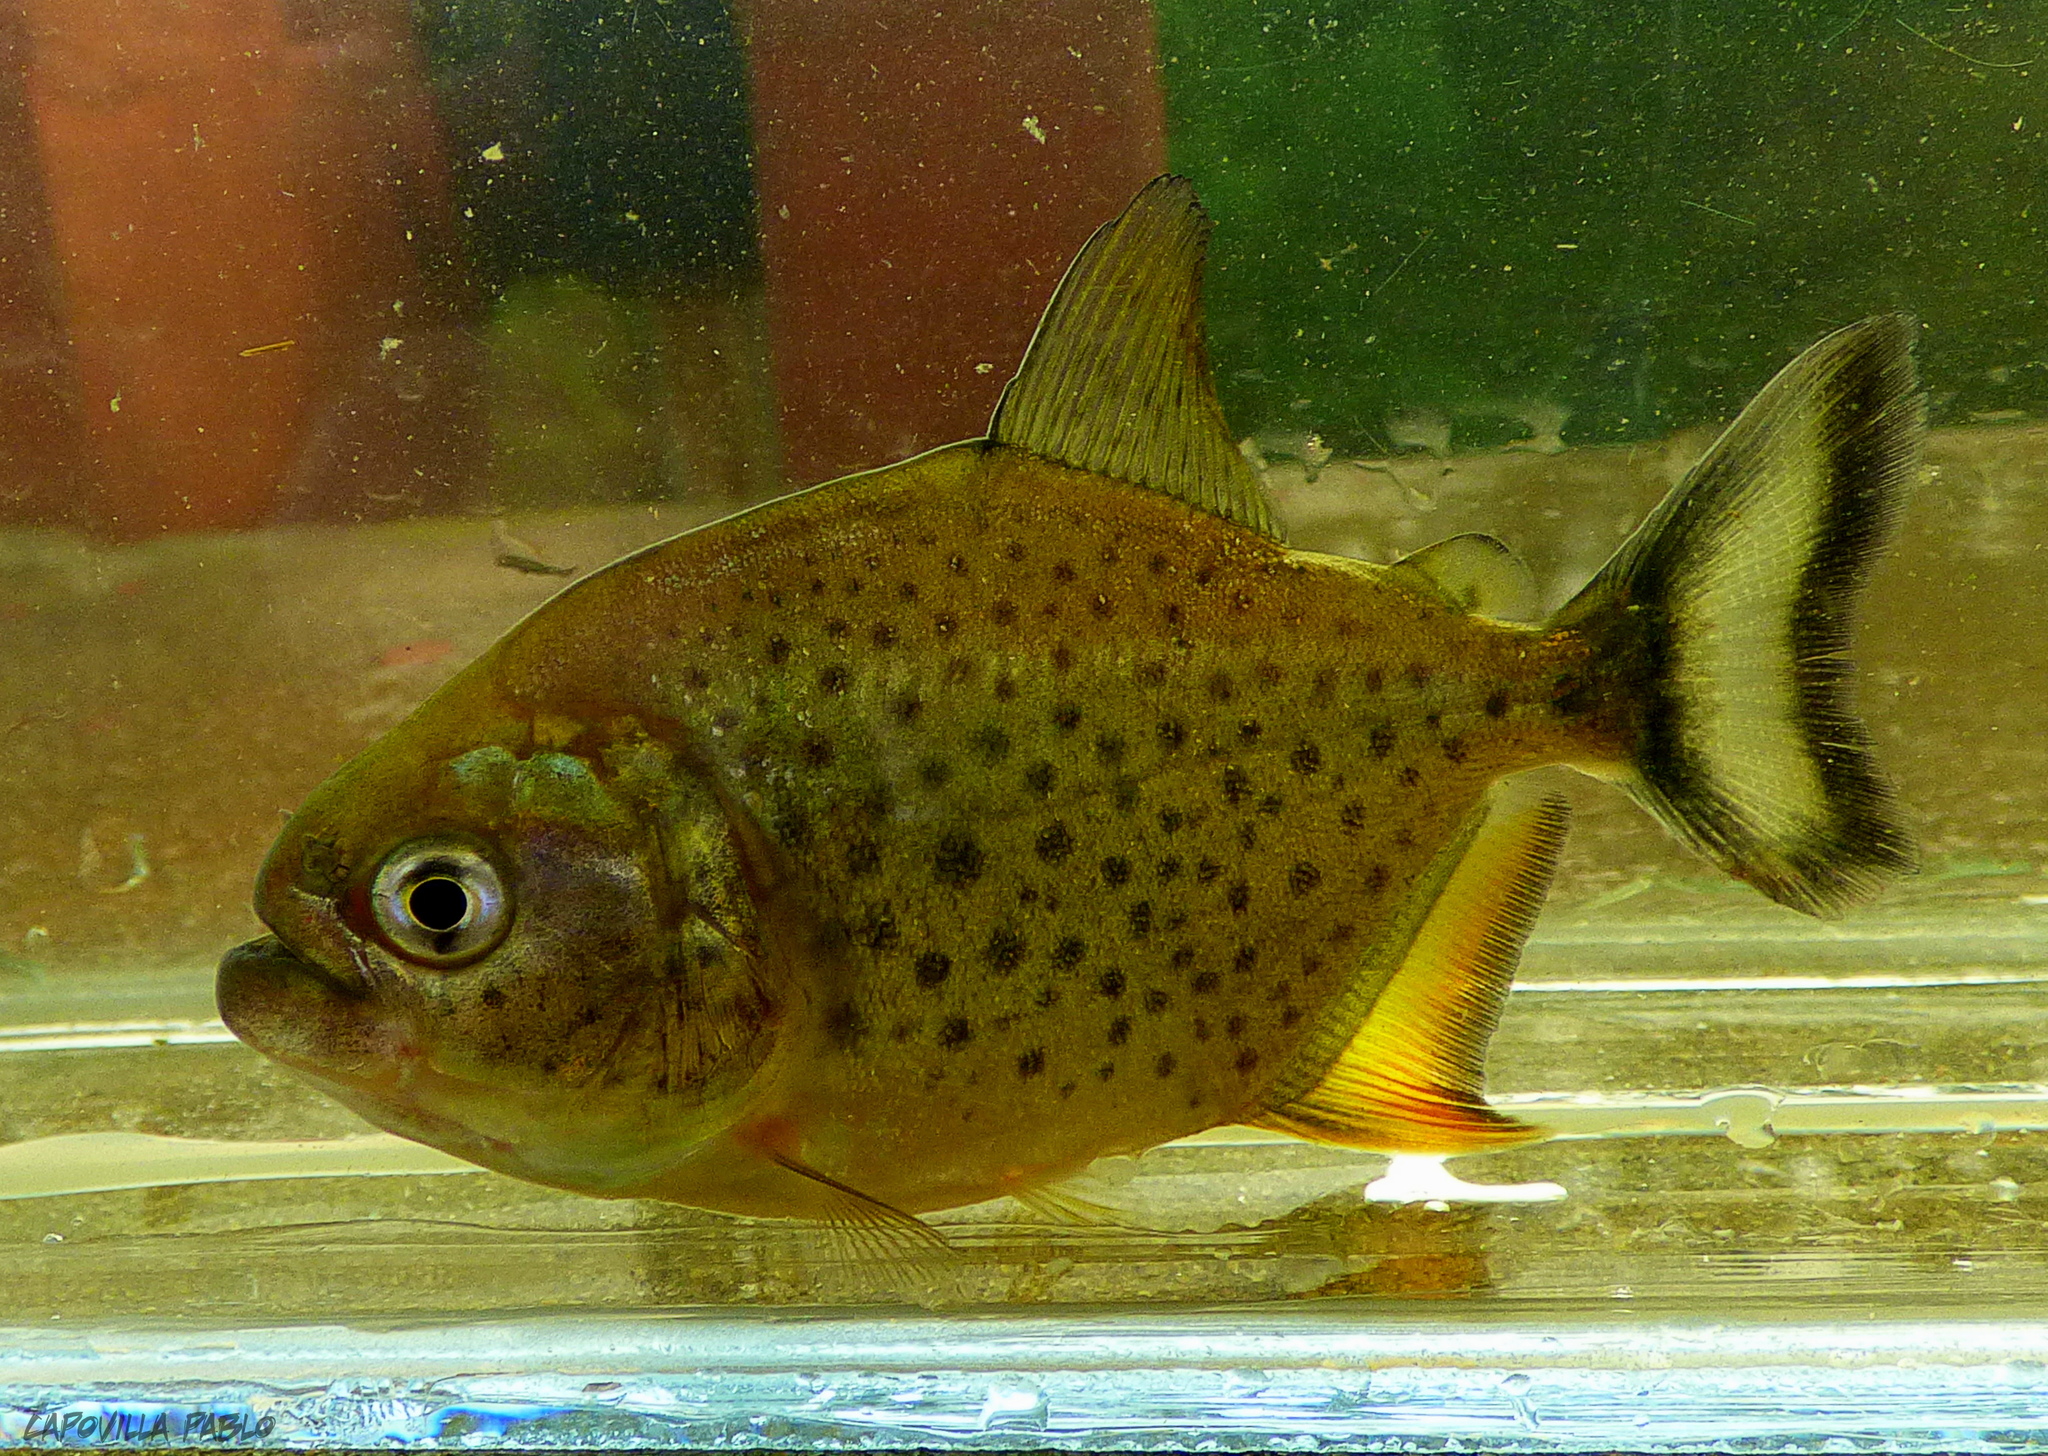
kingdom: Animalia
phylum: Chordata
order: Characiformes
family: Serrasalmidae
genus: Pygocentrus
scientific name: Pygocentrus nattereri
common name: Piranha
